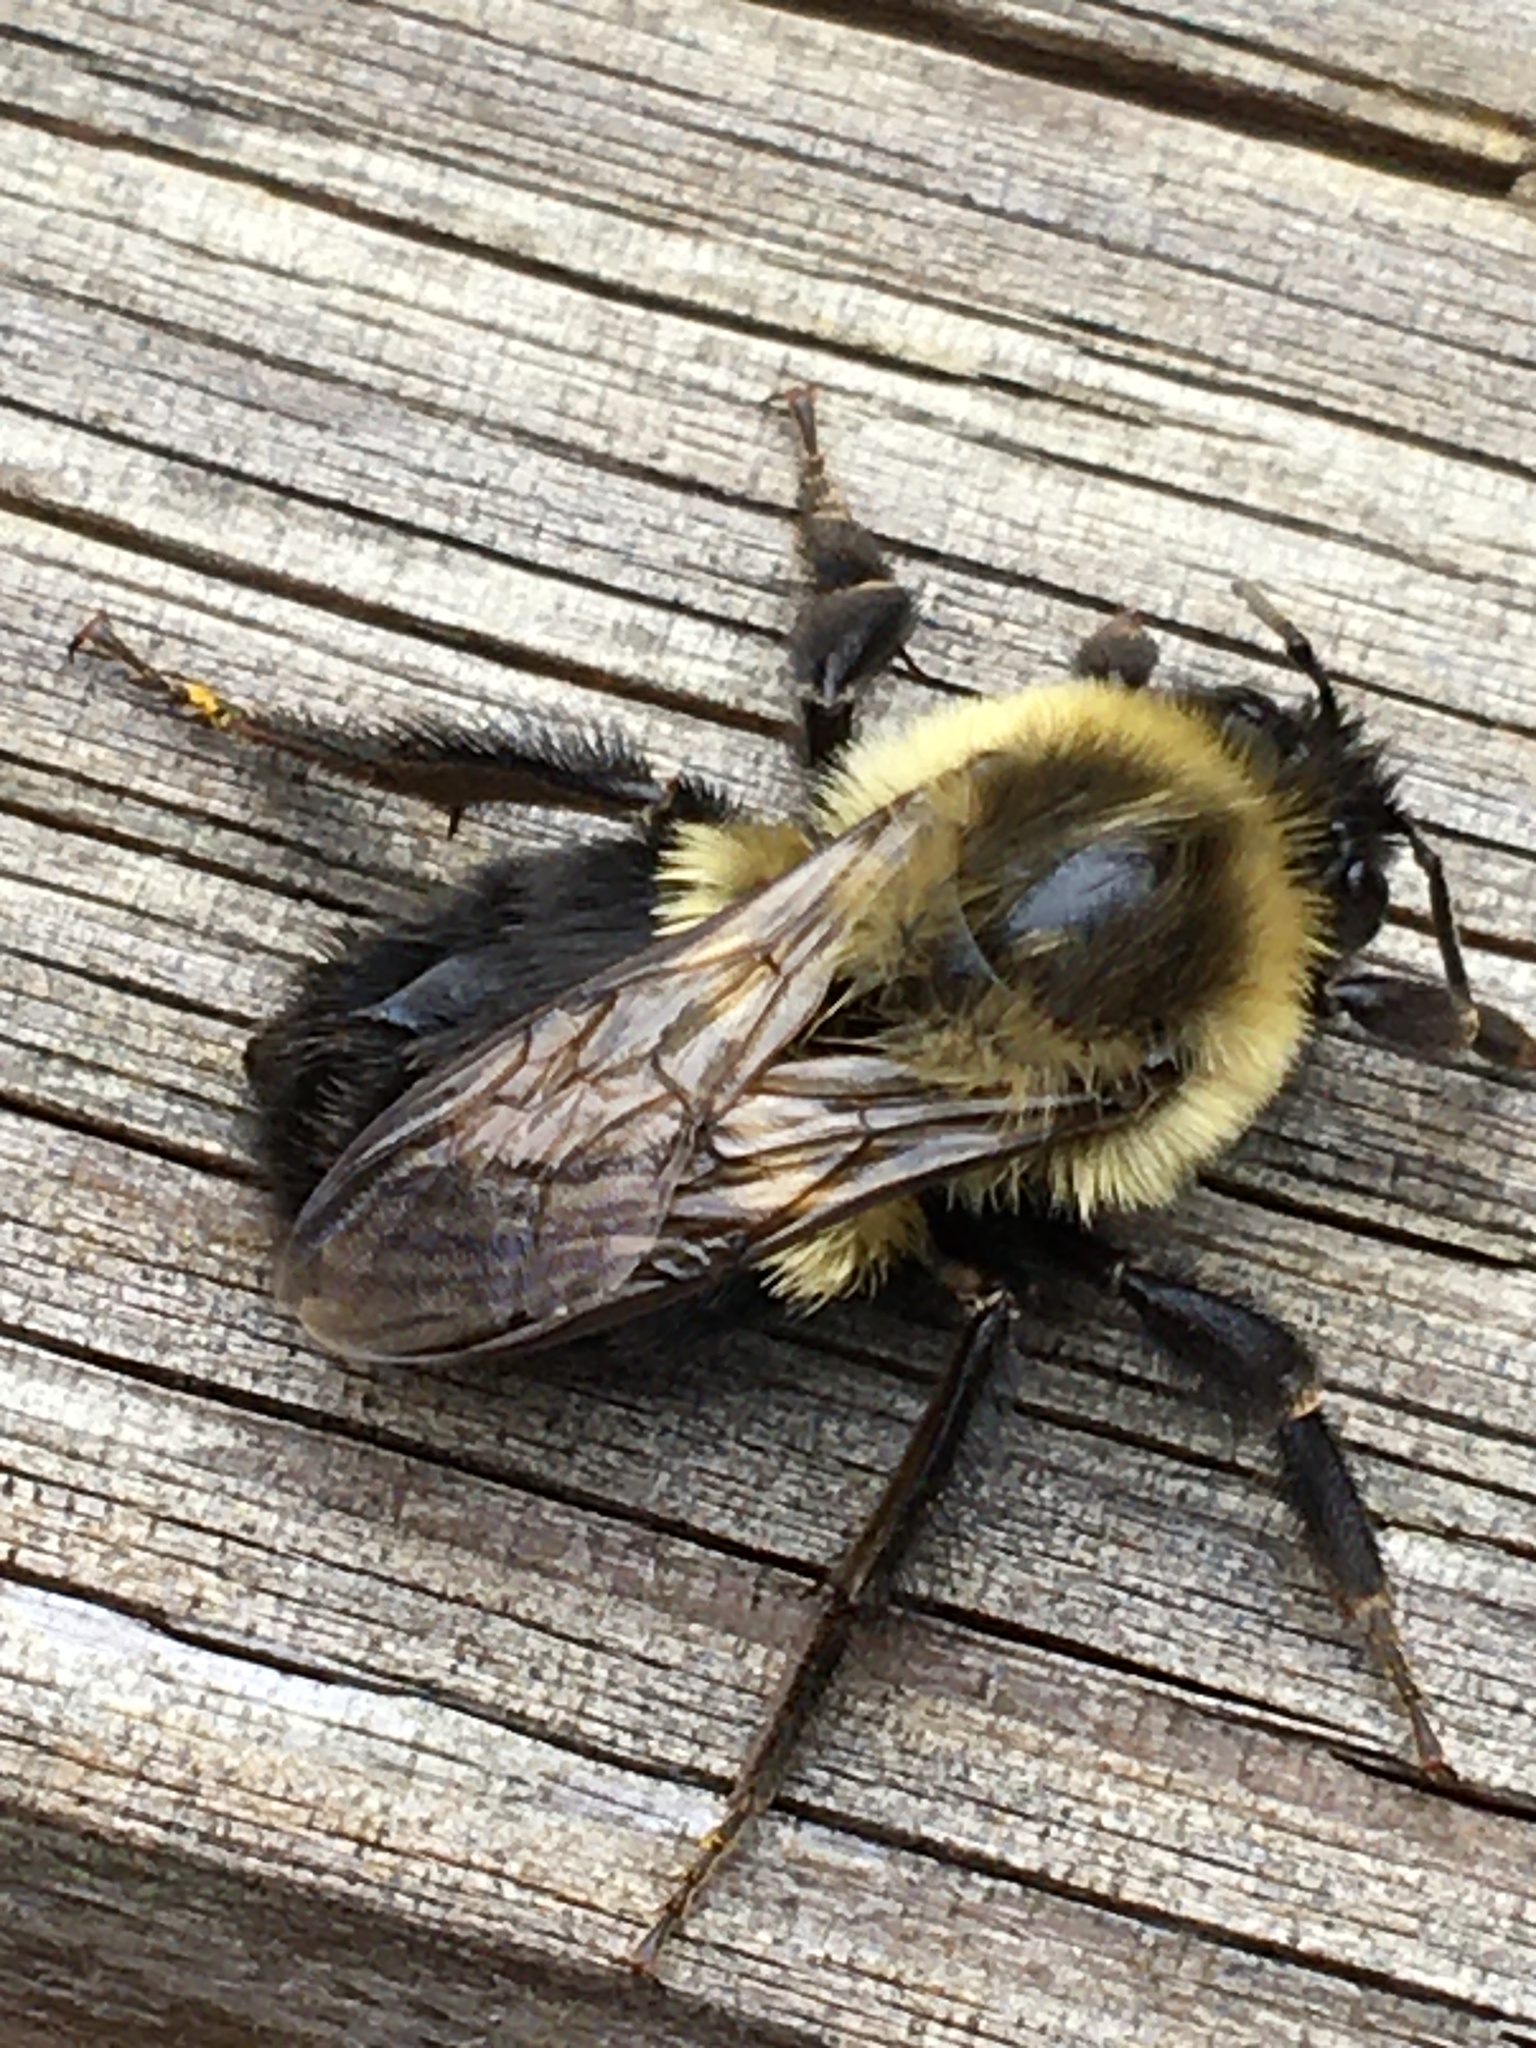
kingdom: Animalia
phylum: Arthropoda
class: Insecta
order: Hymenoptera
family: Apidae
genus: Bombus
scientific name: Bombus impatiens
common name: Common eastern bumble bee
